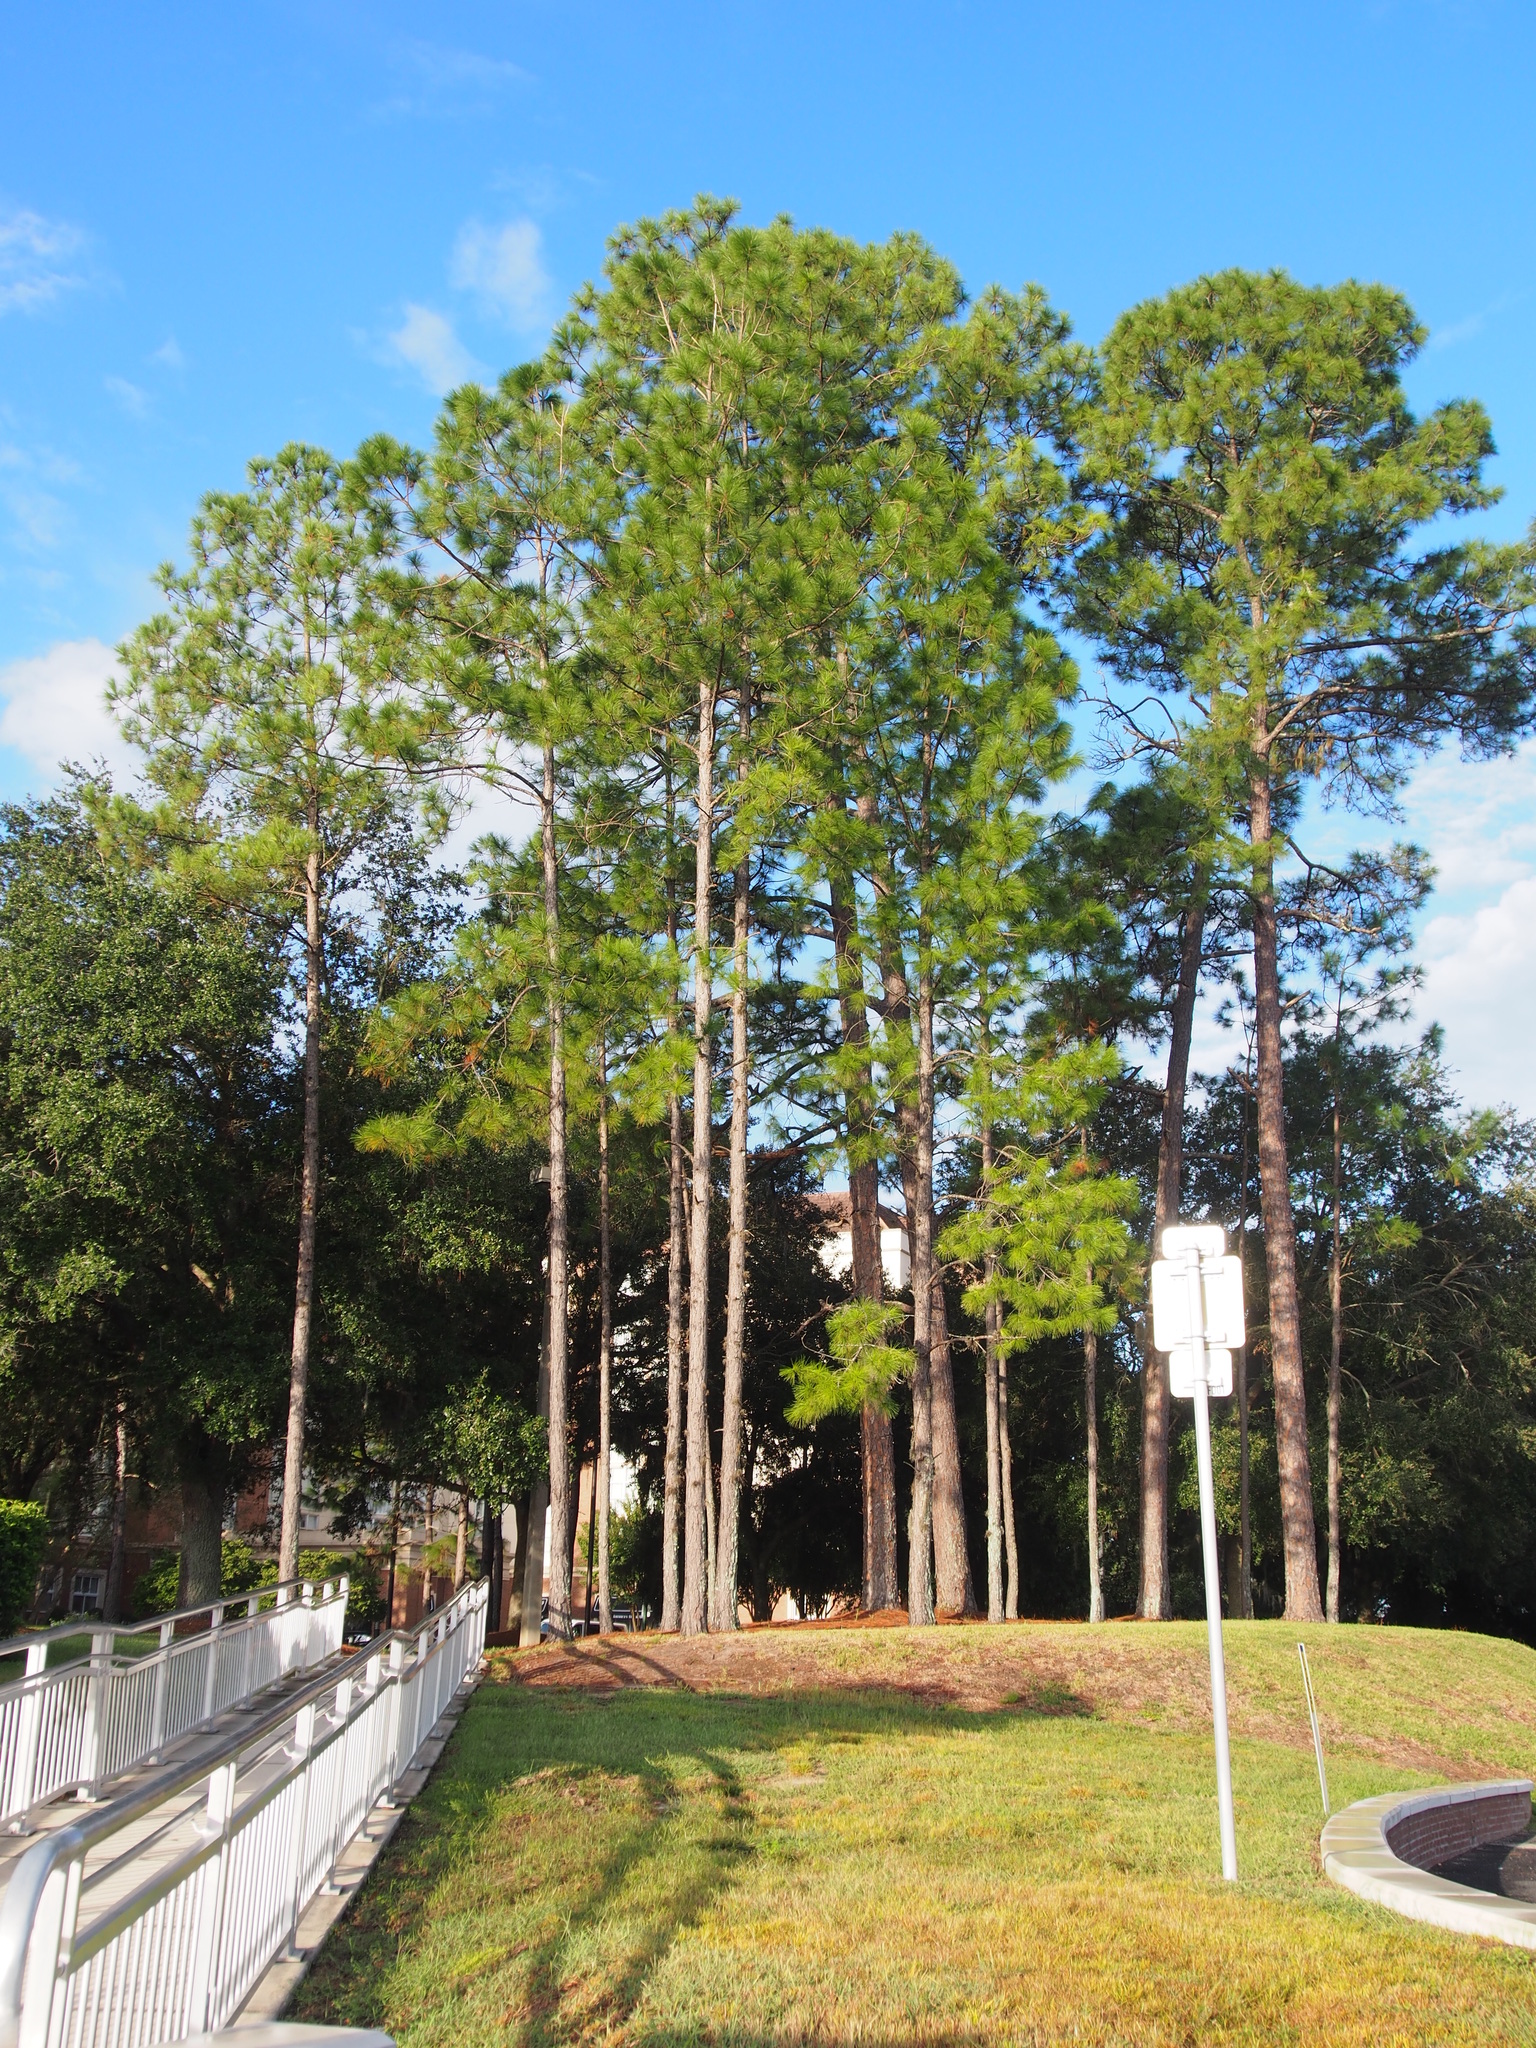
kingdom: Plantae
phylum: Tracheophyta
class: Pinopsida
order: Pinales
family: Pinaceae
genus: Pinus
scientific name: Pinus taeda
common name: Loblolly pine
